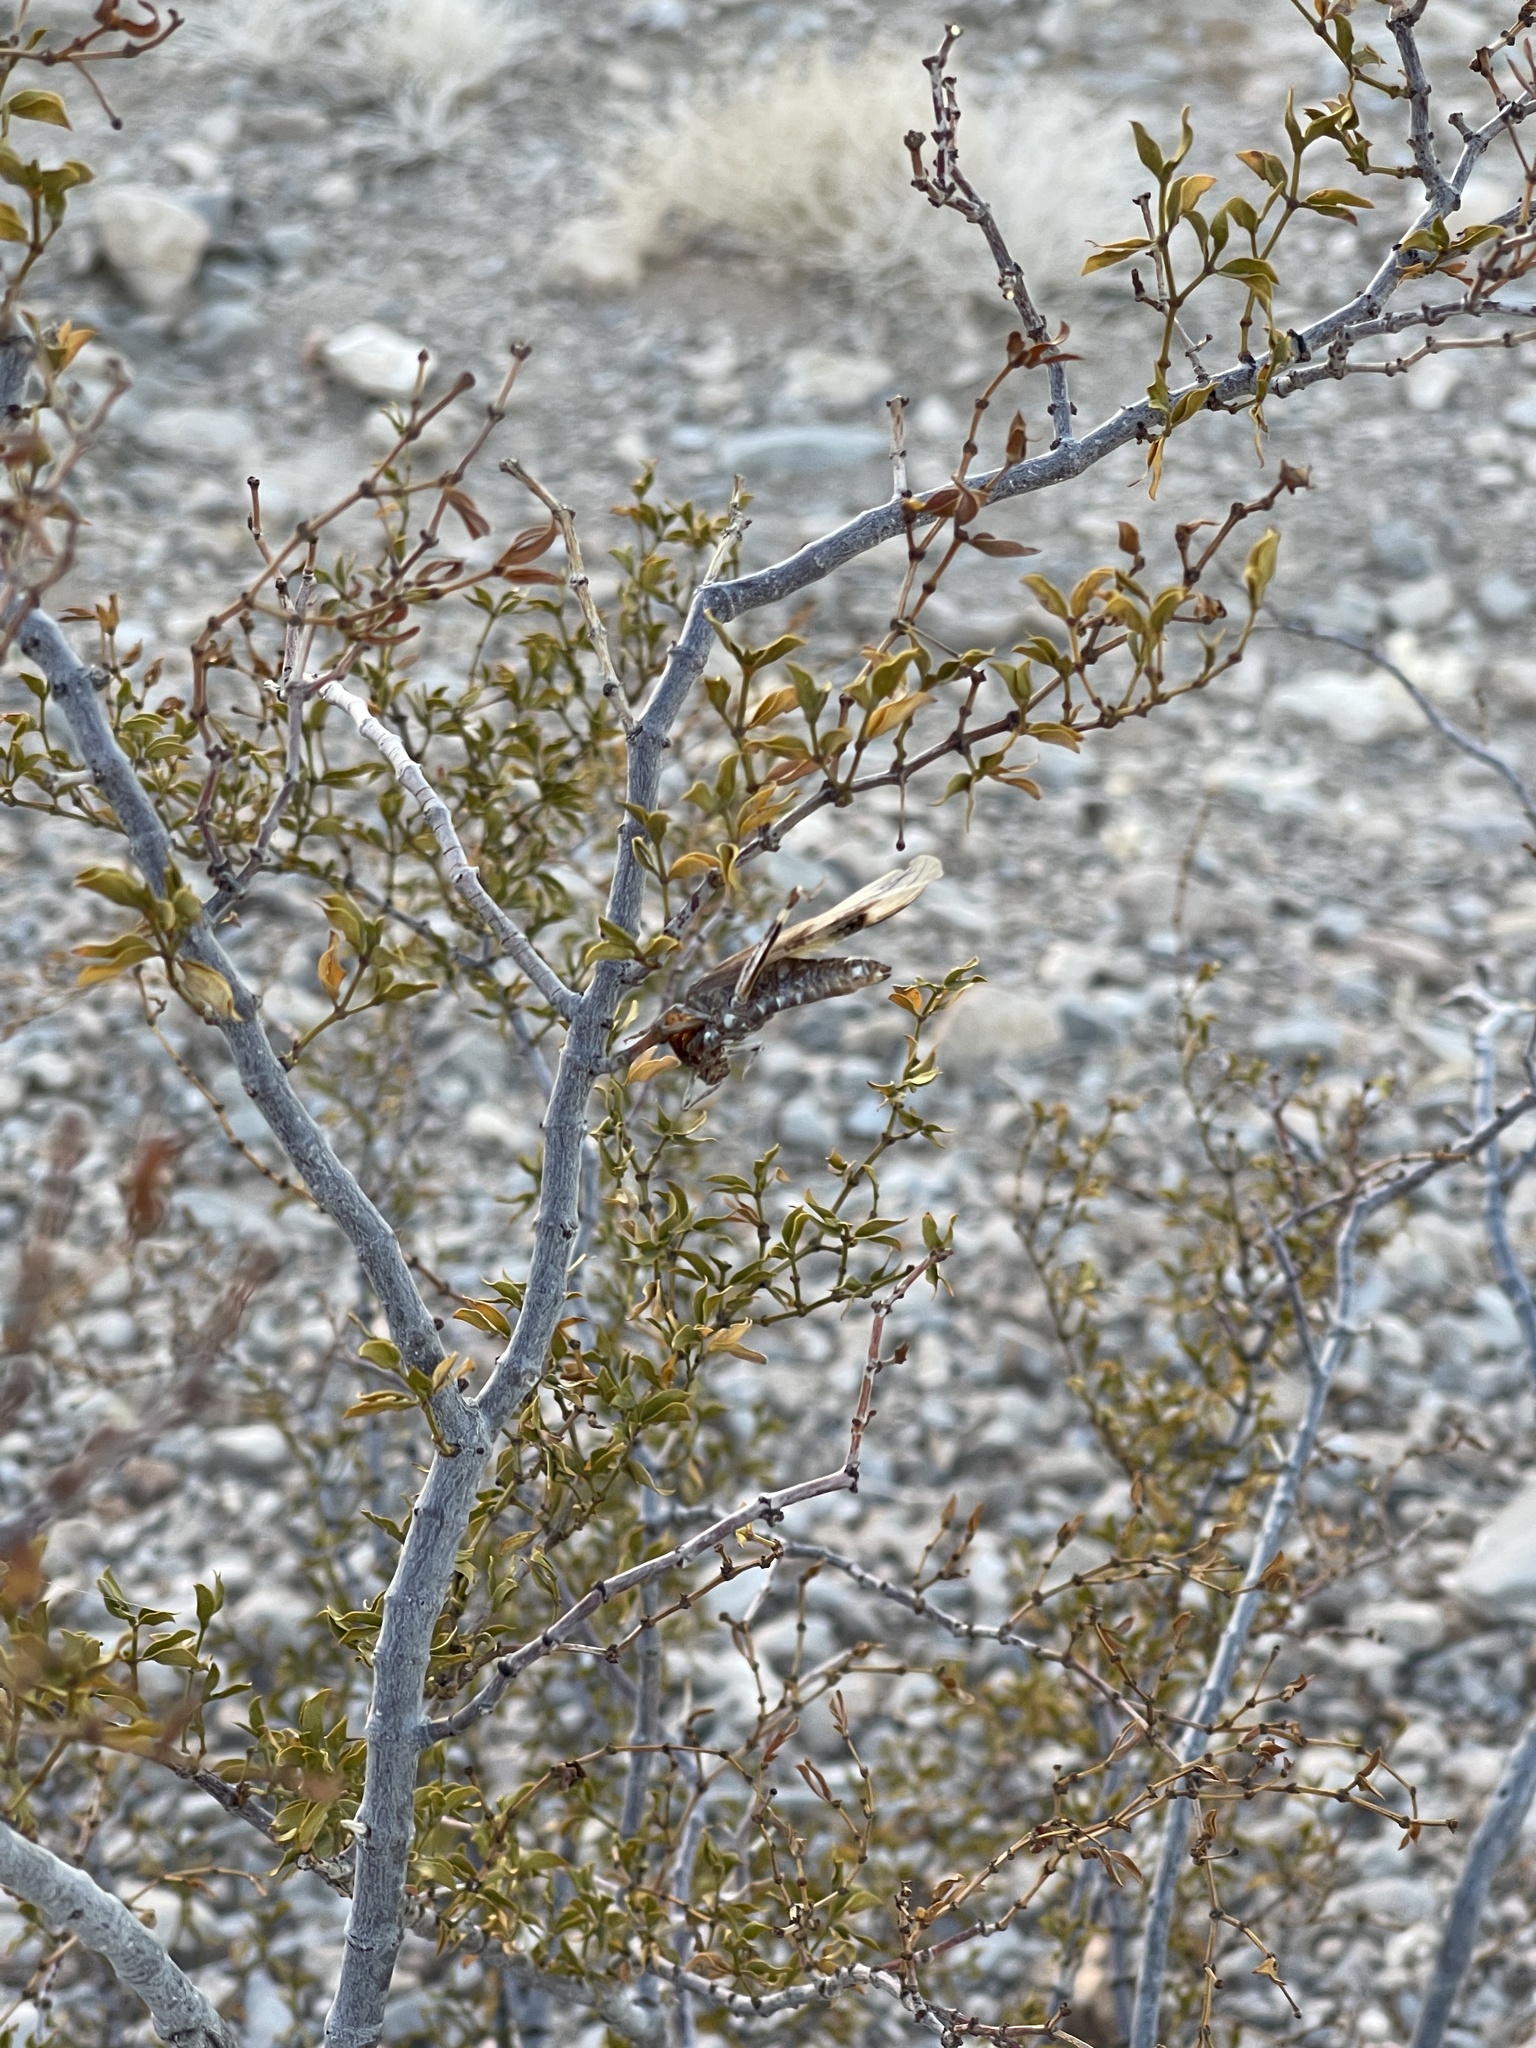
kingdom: Plantae
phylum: Tracheophyta
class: Magnoliopsida
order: Zygophyllales
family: Zygophyllaceae
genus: Larrea
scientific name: Larrea tridentata
